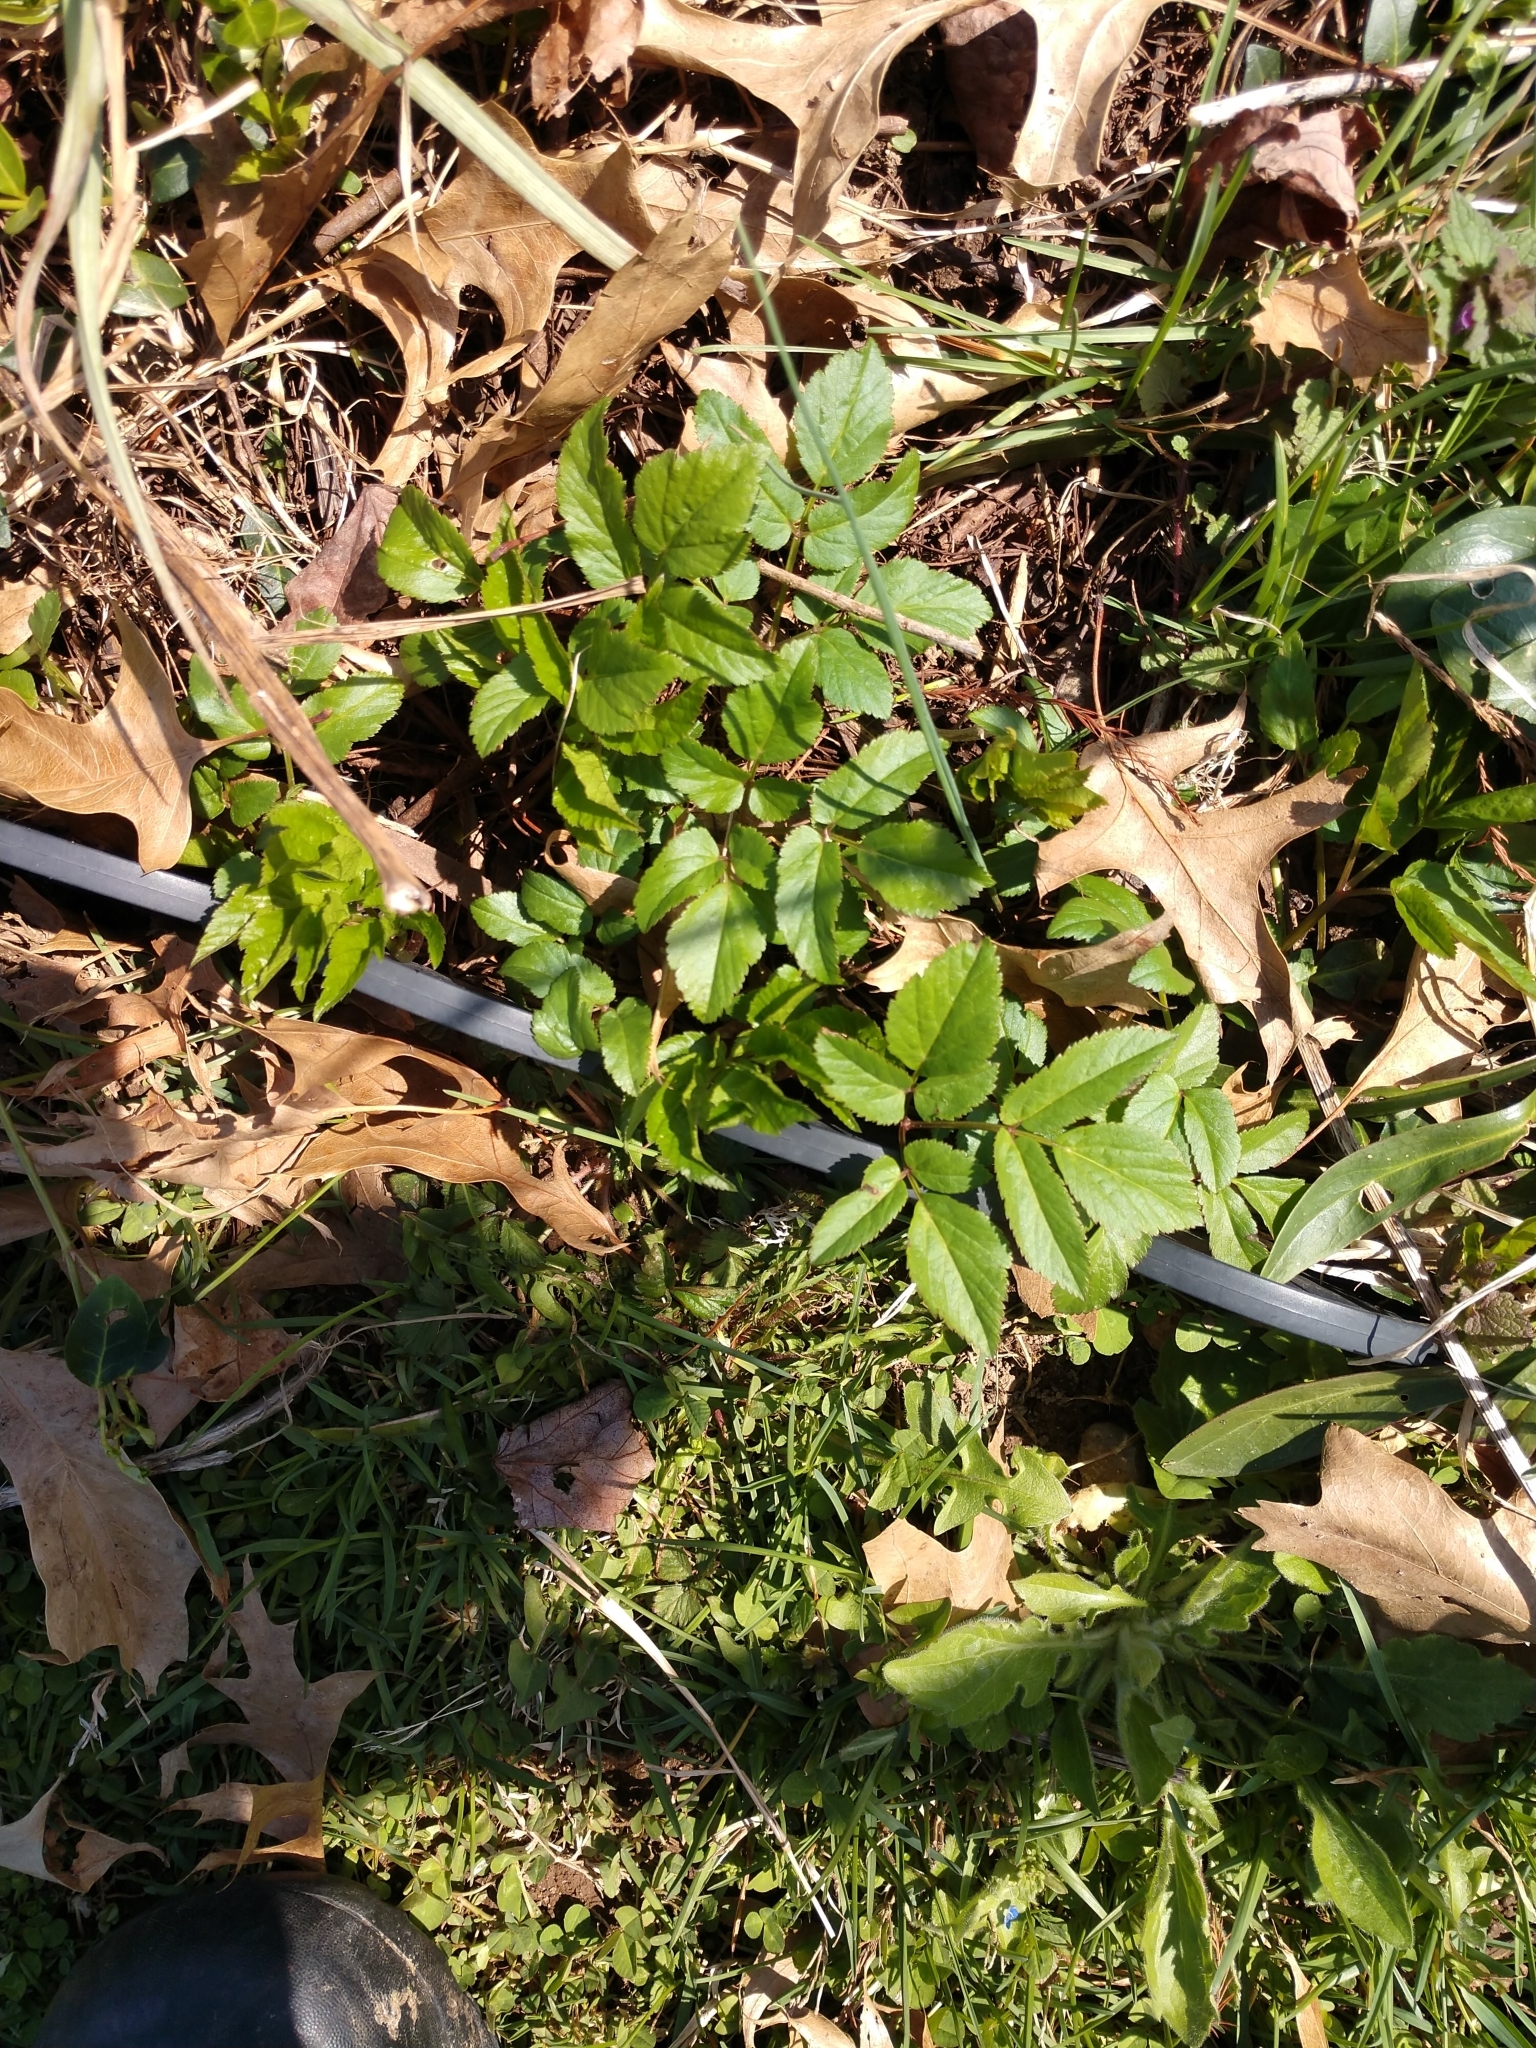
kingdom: Plantae
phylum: Tracheophyta
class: Magnoliopsida
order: Apiales
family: Apiaceae
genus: Aegopodium
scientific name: Aegopodium podagraria
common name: Ground-elder
